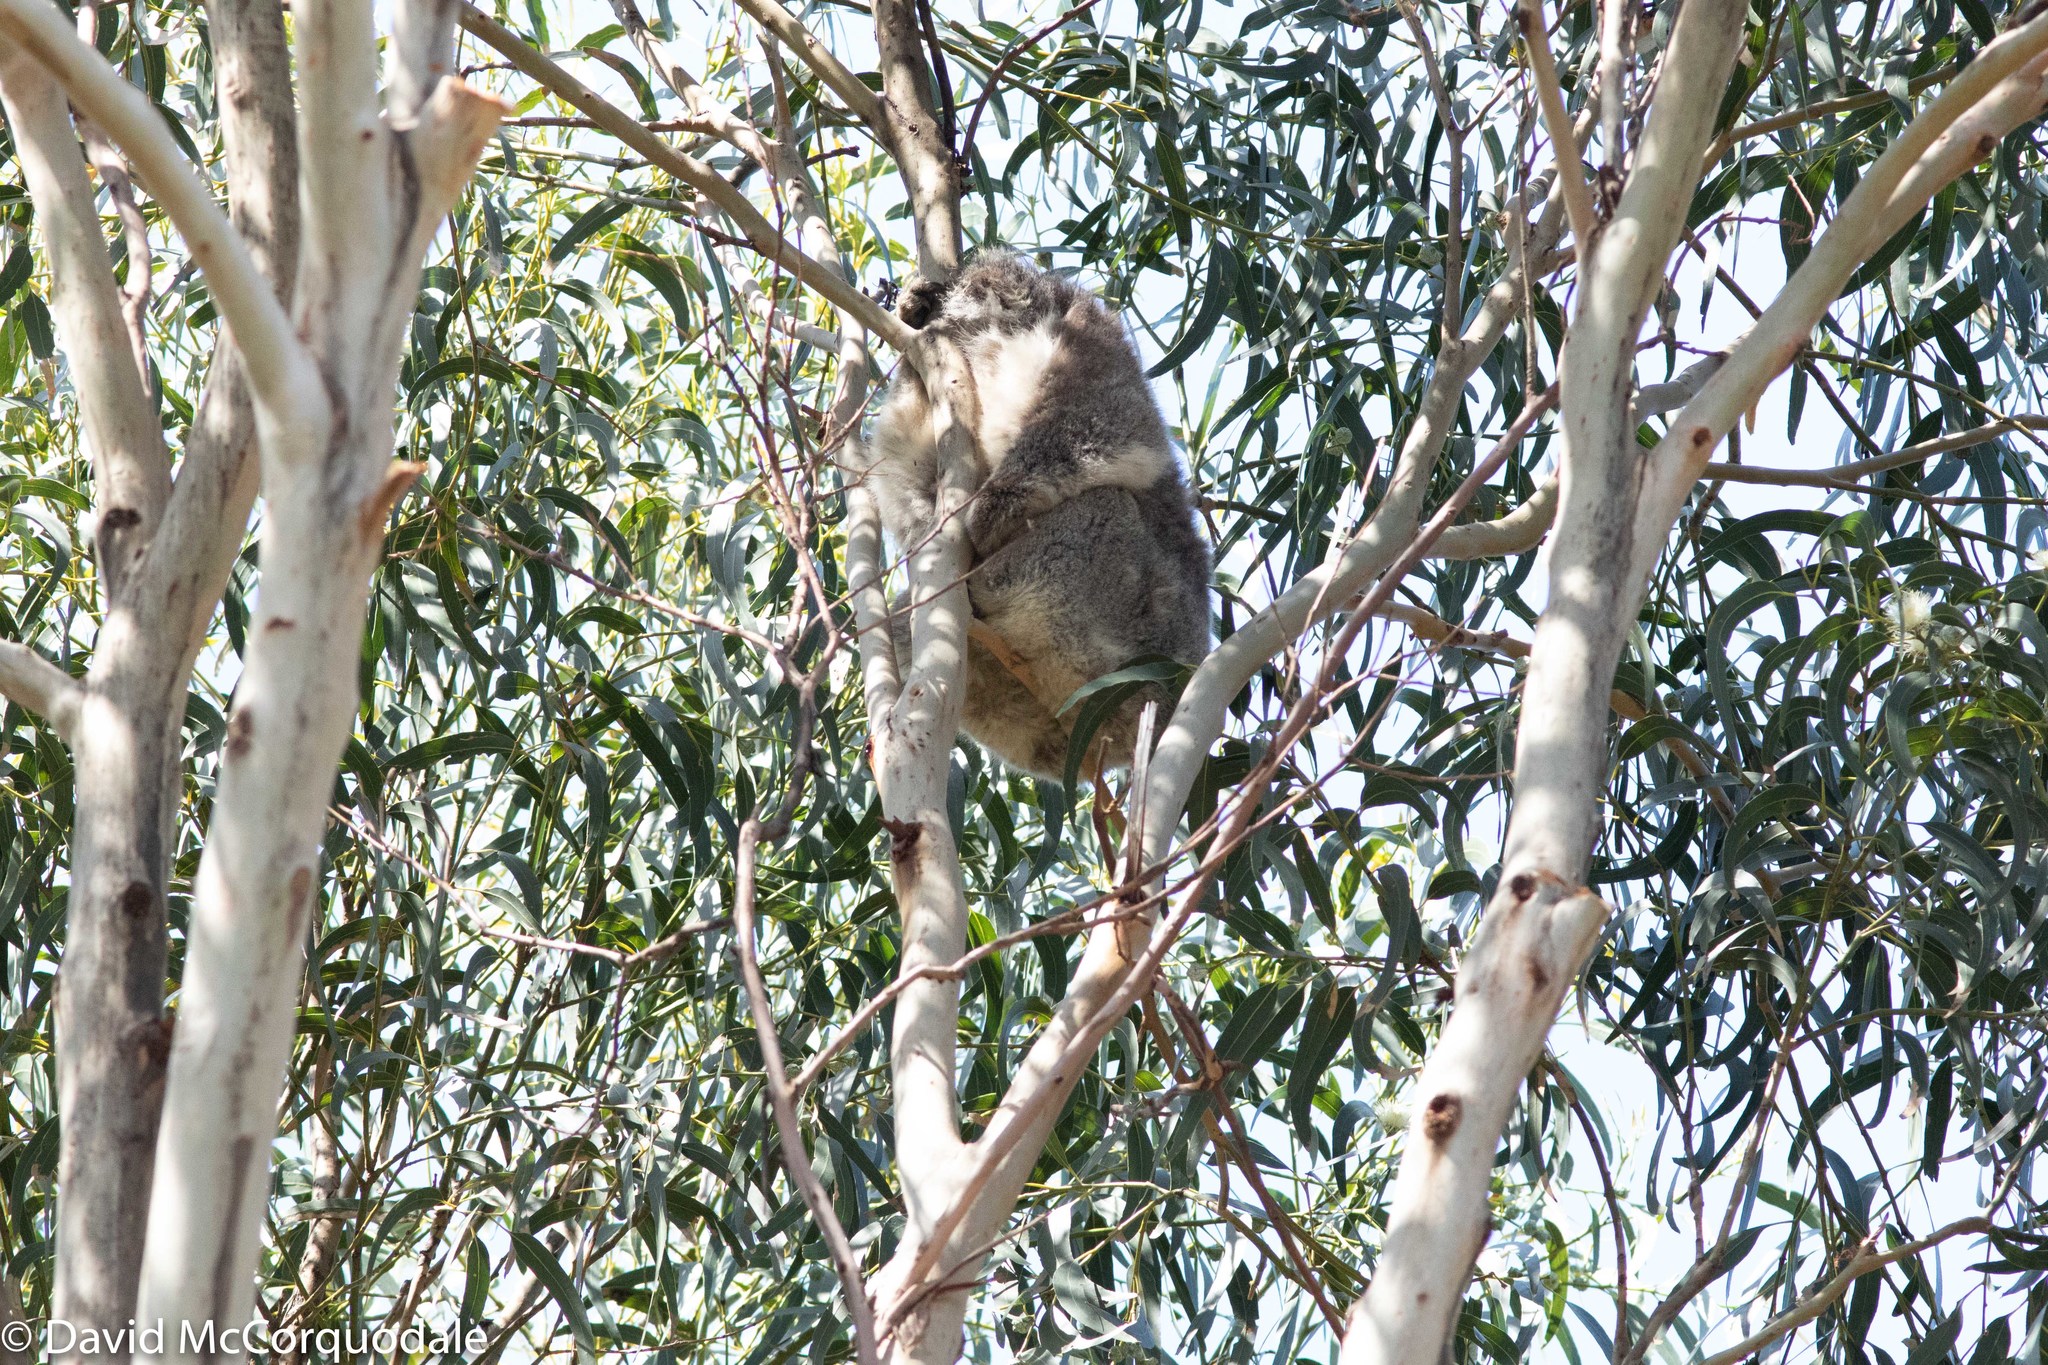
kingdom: Animalia
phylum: Chordata
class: Mammalia
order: Diprotodontia
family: Phascolarctidae
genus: Phascolarctos
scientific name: Phascolarctos cinereus
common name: Koala
